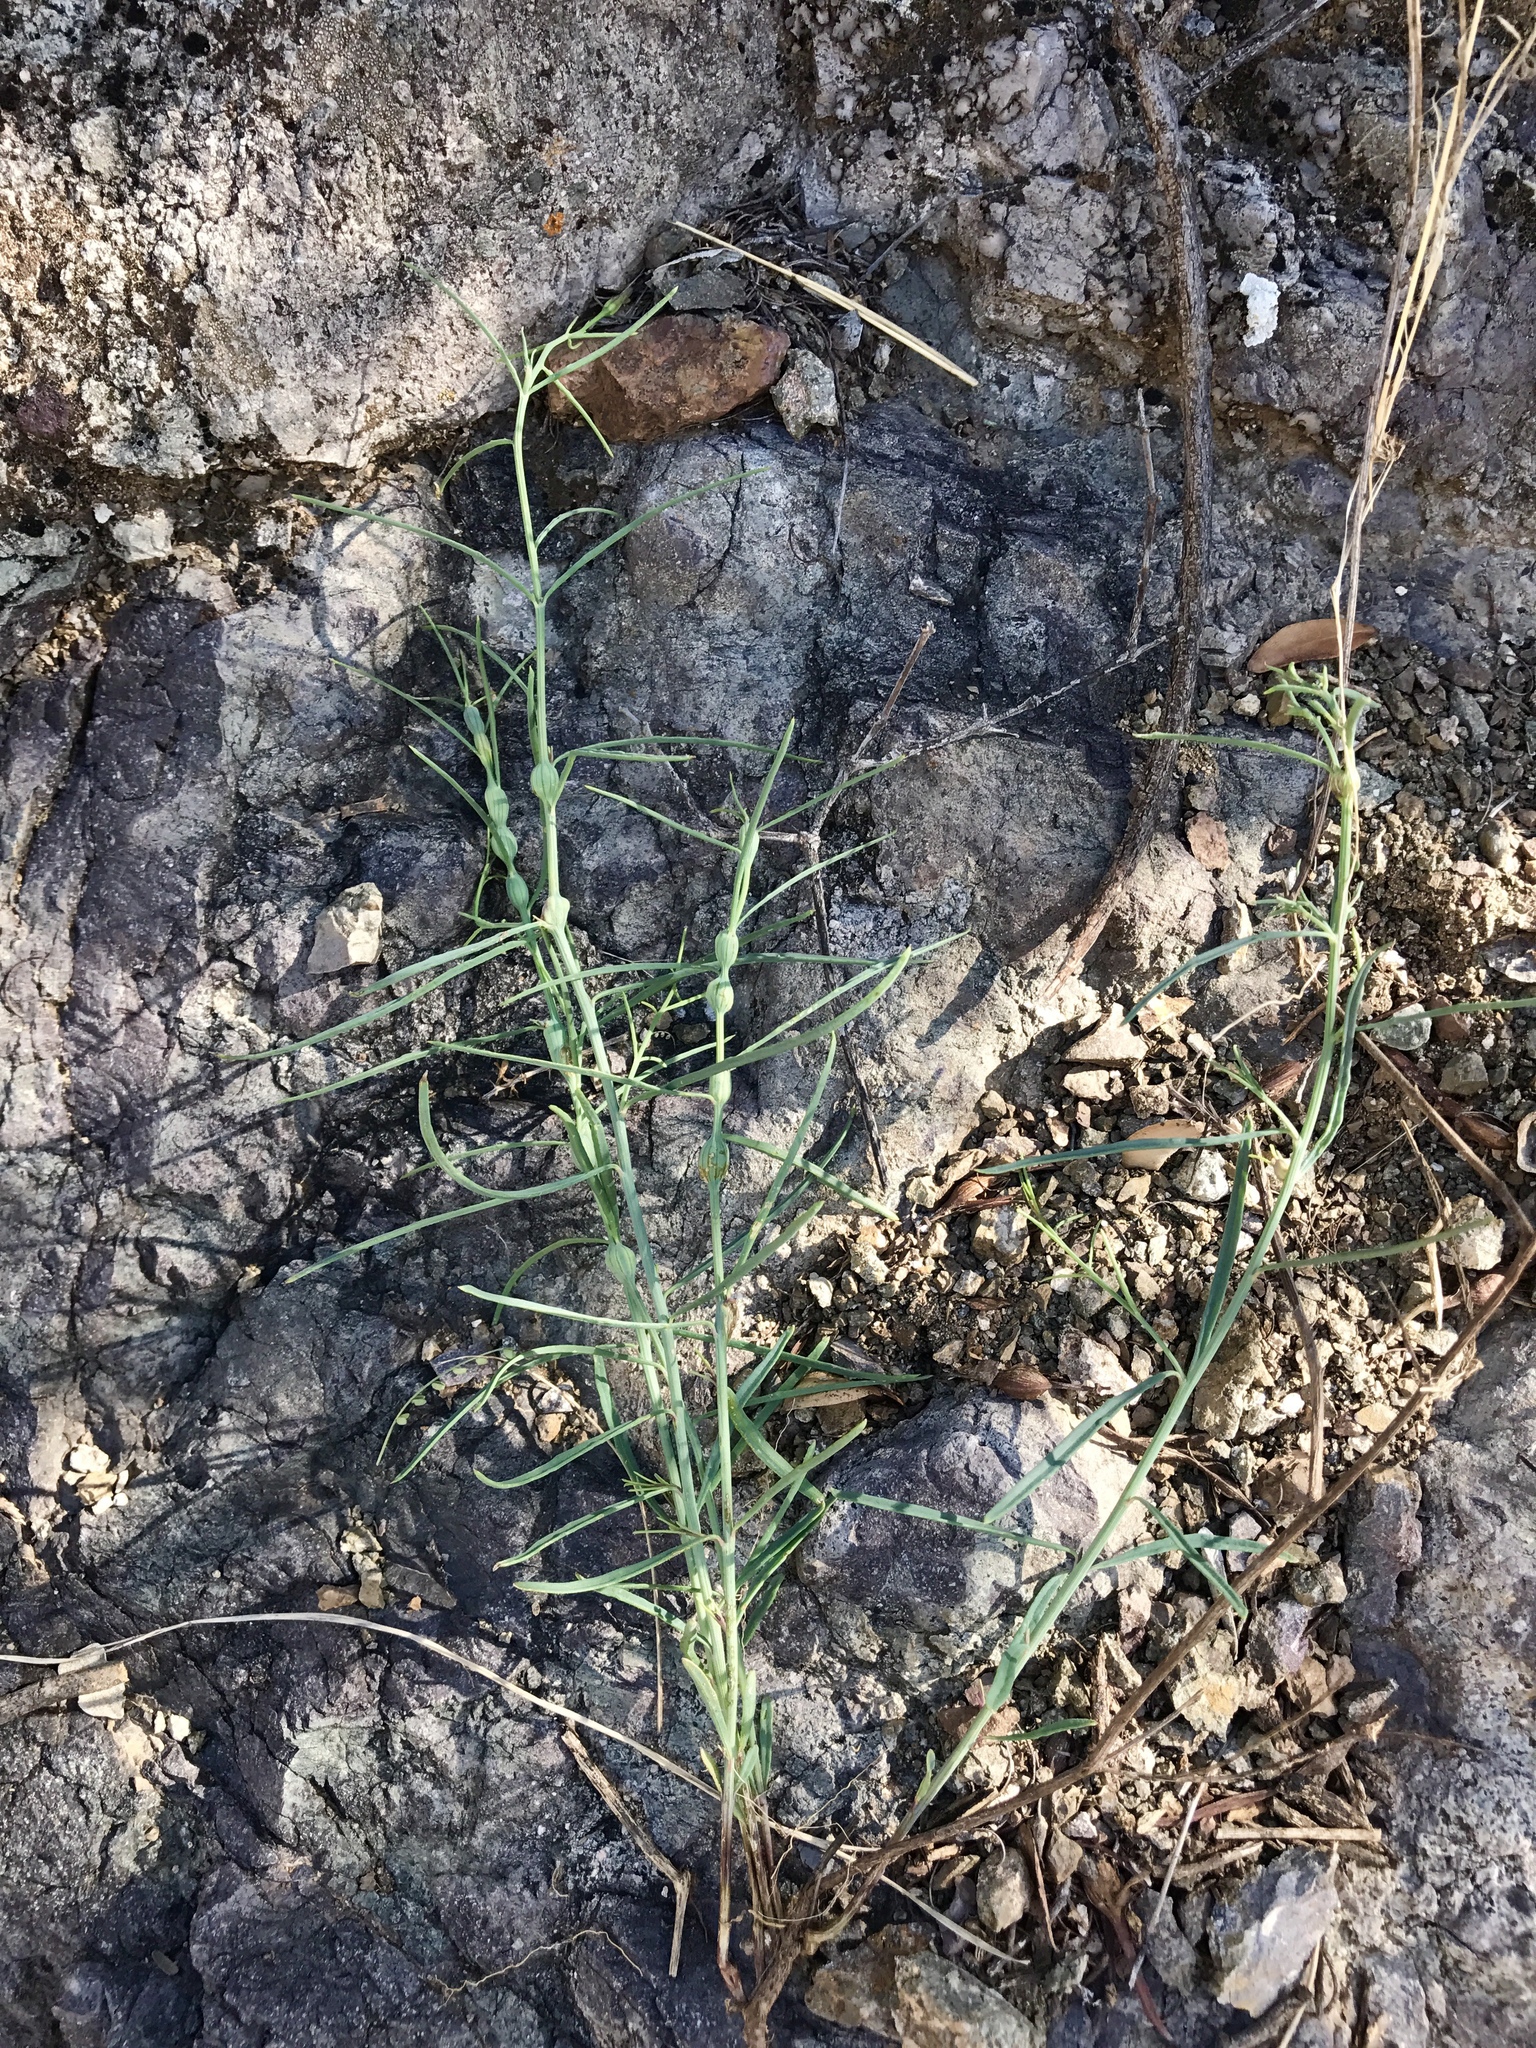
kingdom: Plantae
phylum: Tracheophyta
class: Magnoliopsida
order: Asterales
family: Asteraceae
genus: Porophyllum
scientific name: Porophyllum gracile
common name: Odora
